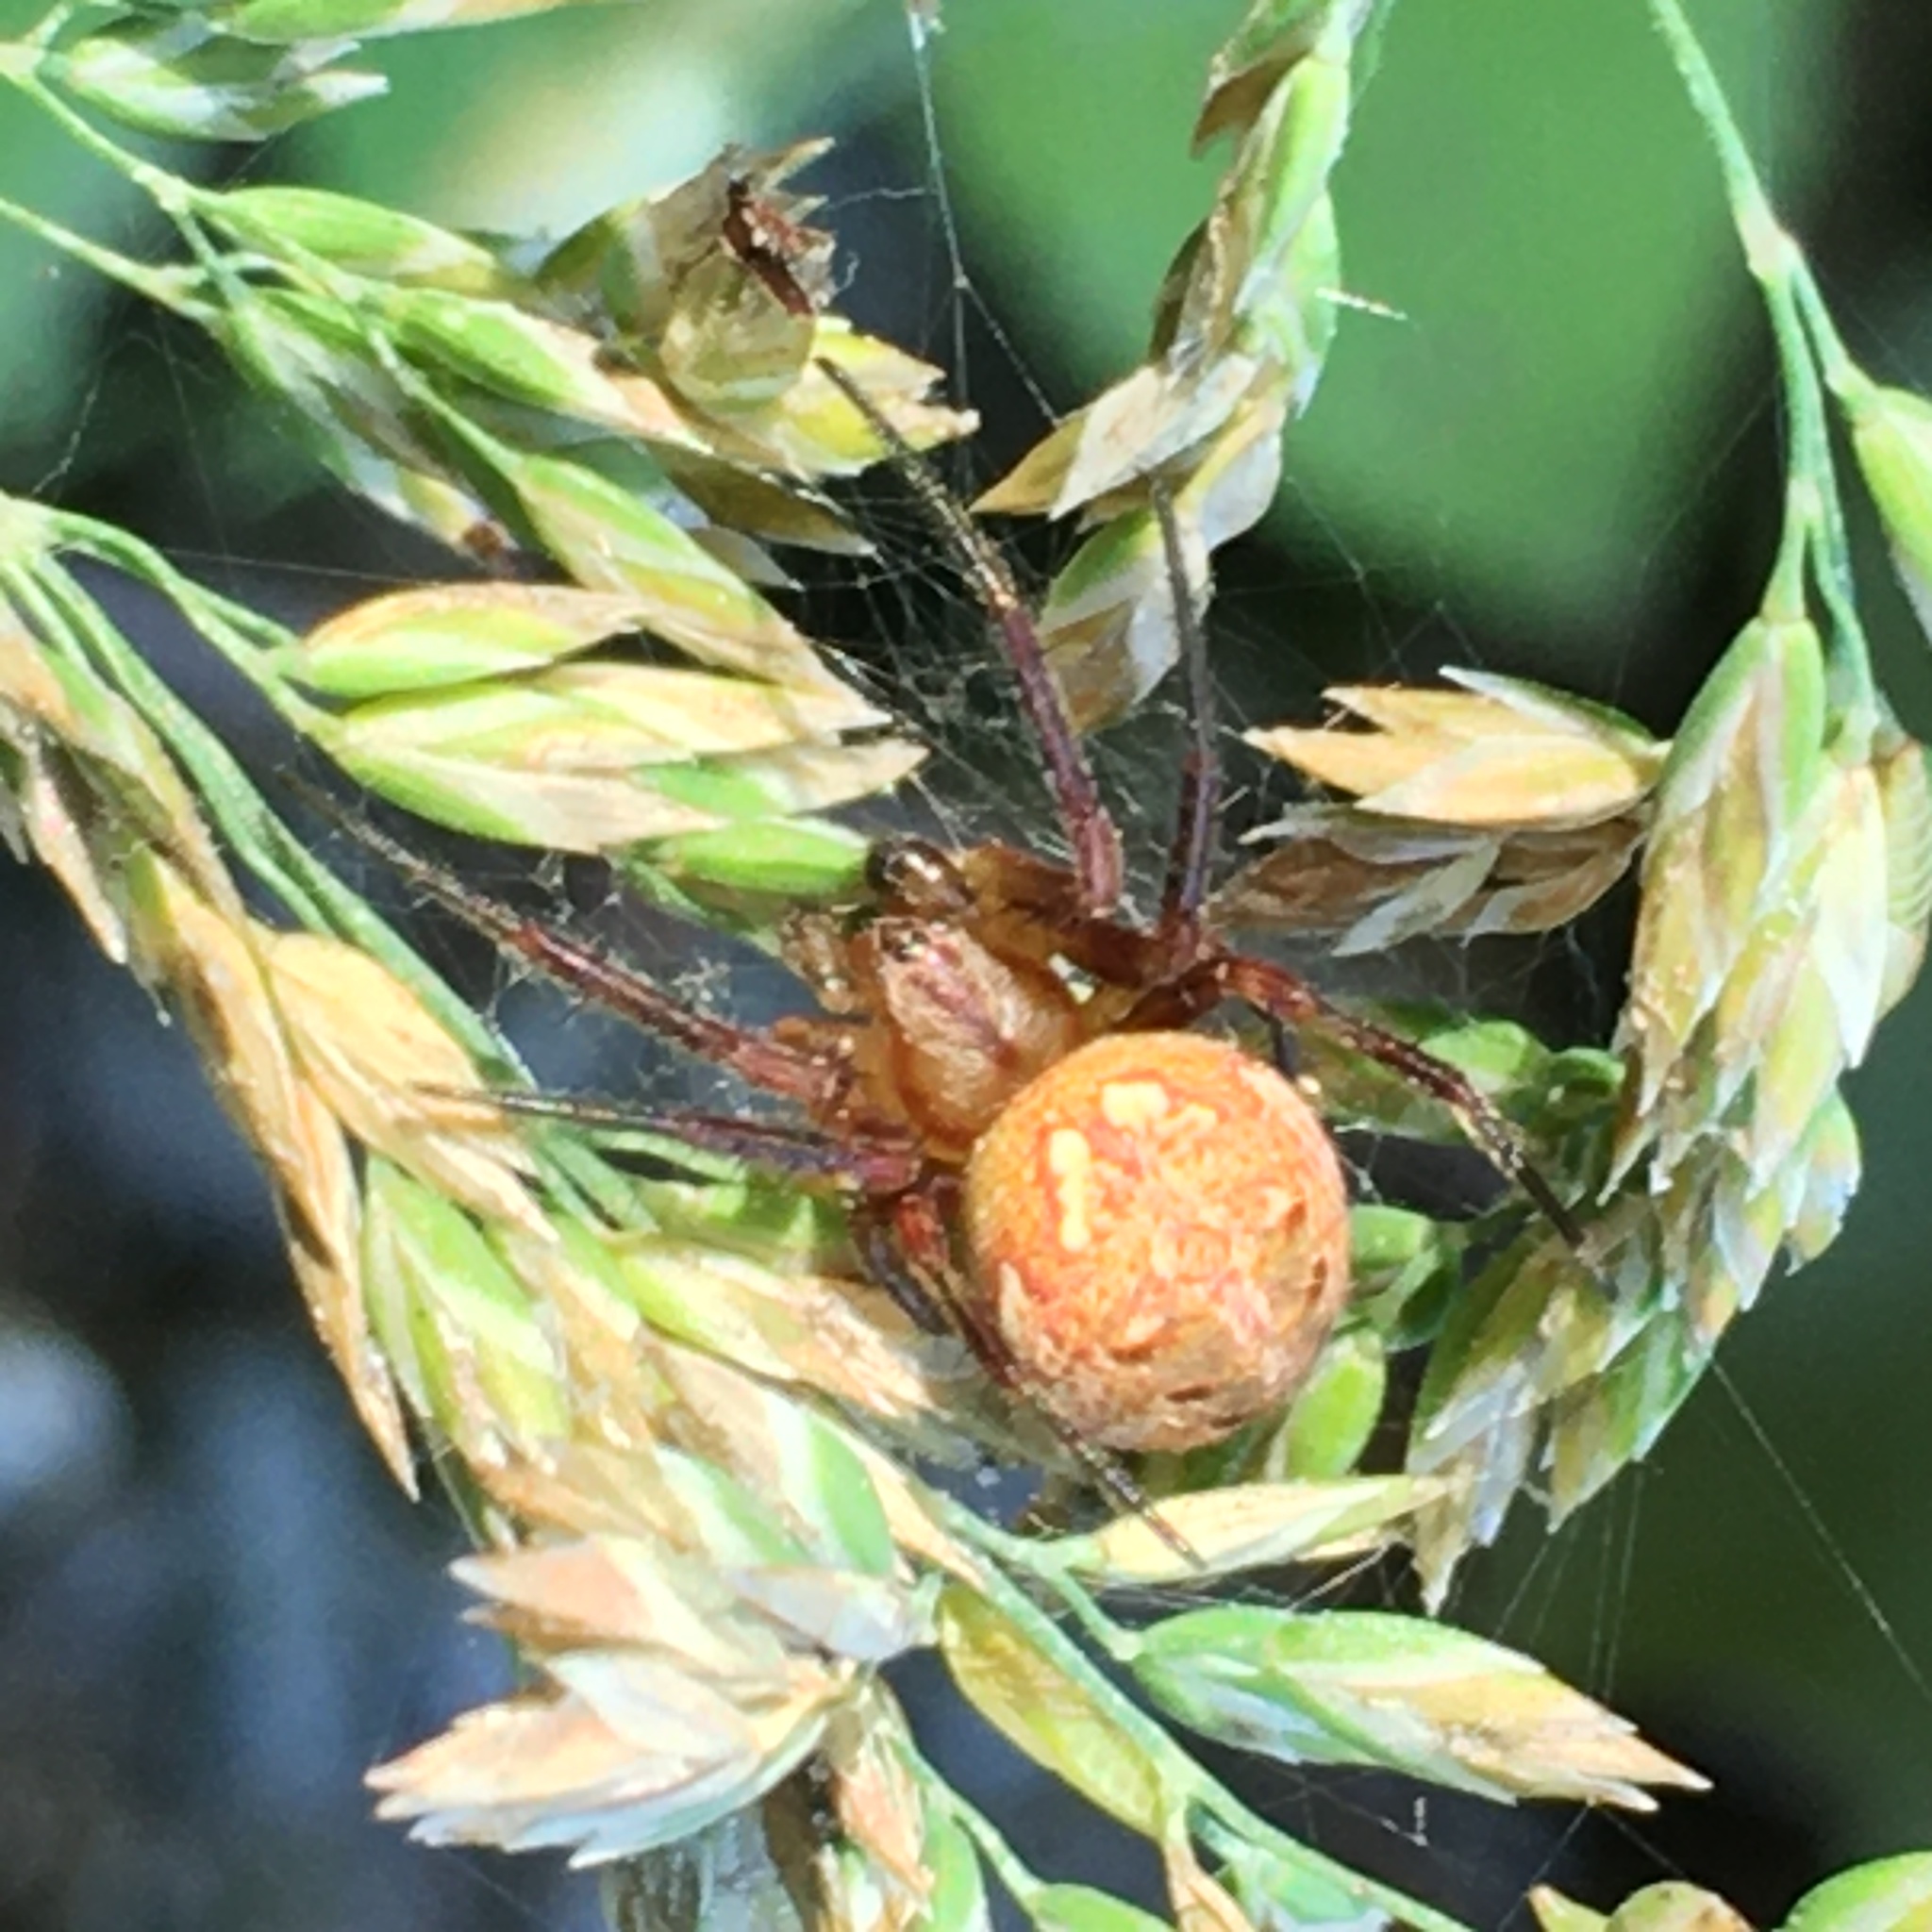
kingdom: Animalia
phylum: Arthropoda
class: Arachnida
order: Araneae
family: Araneidae
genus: Neoscona
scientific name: Neoscona arabesca
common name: Orb weavers
